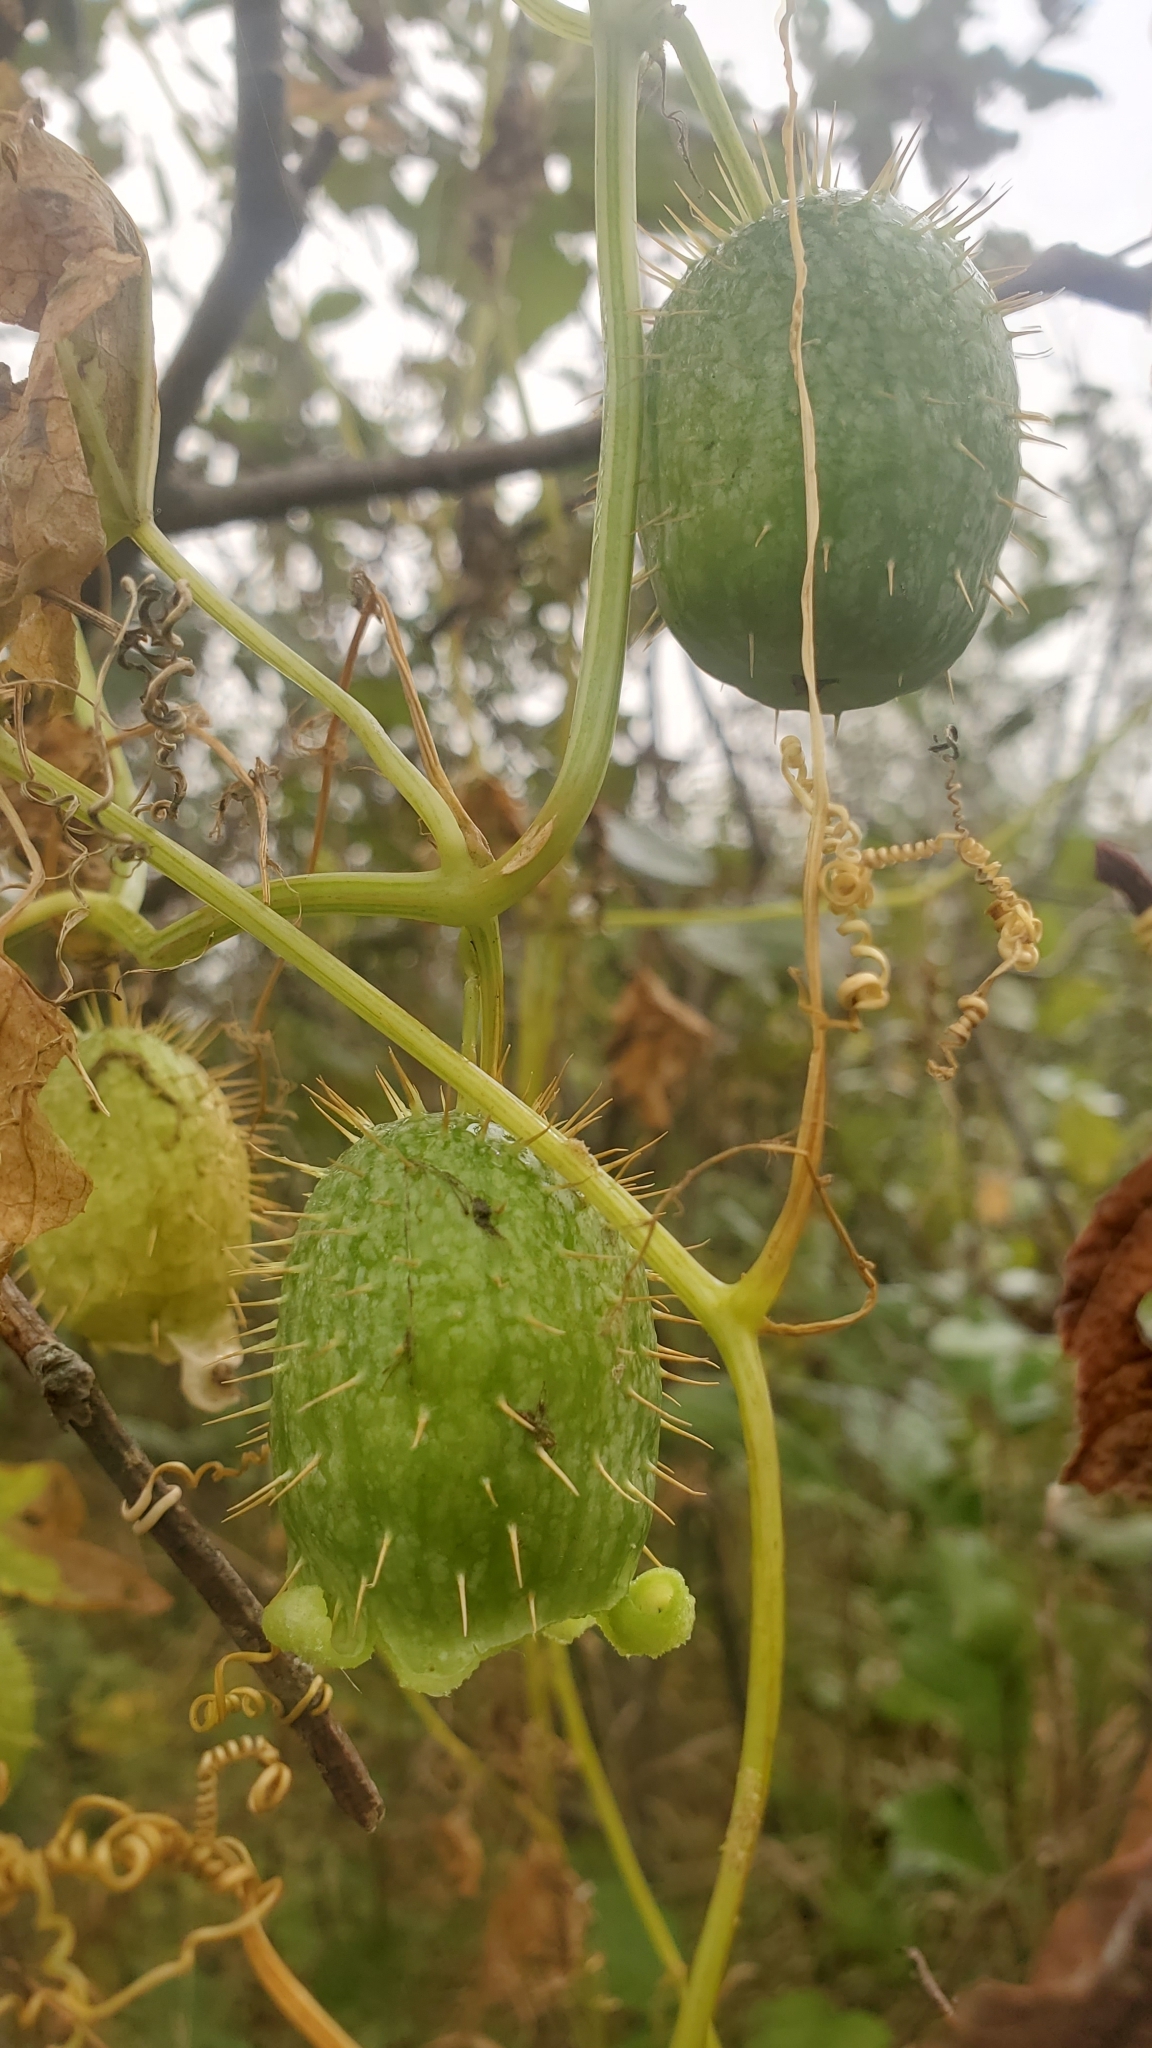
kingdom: Plantae
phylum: Tracheophyta
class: Magnoliopsida
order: Cucurbitales
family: Cucurbitaceae
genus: Echinocystis
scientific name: Echinocystis lobata
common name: Wild cucumber
